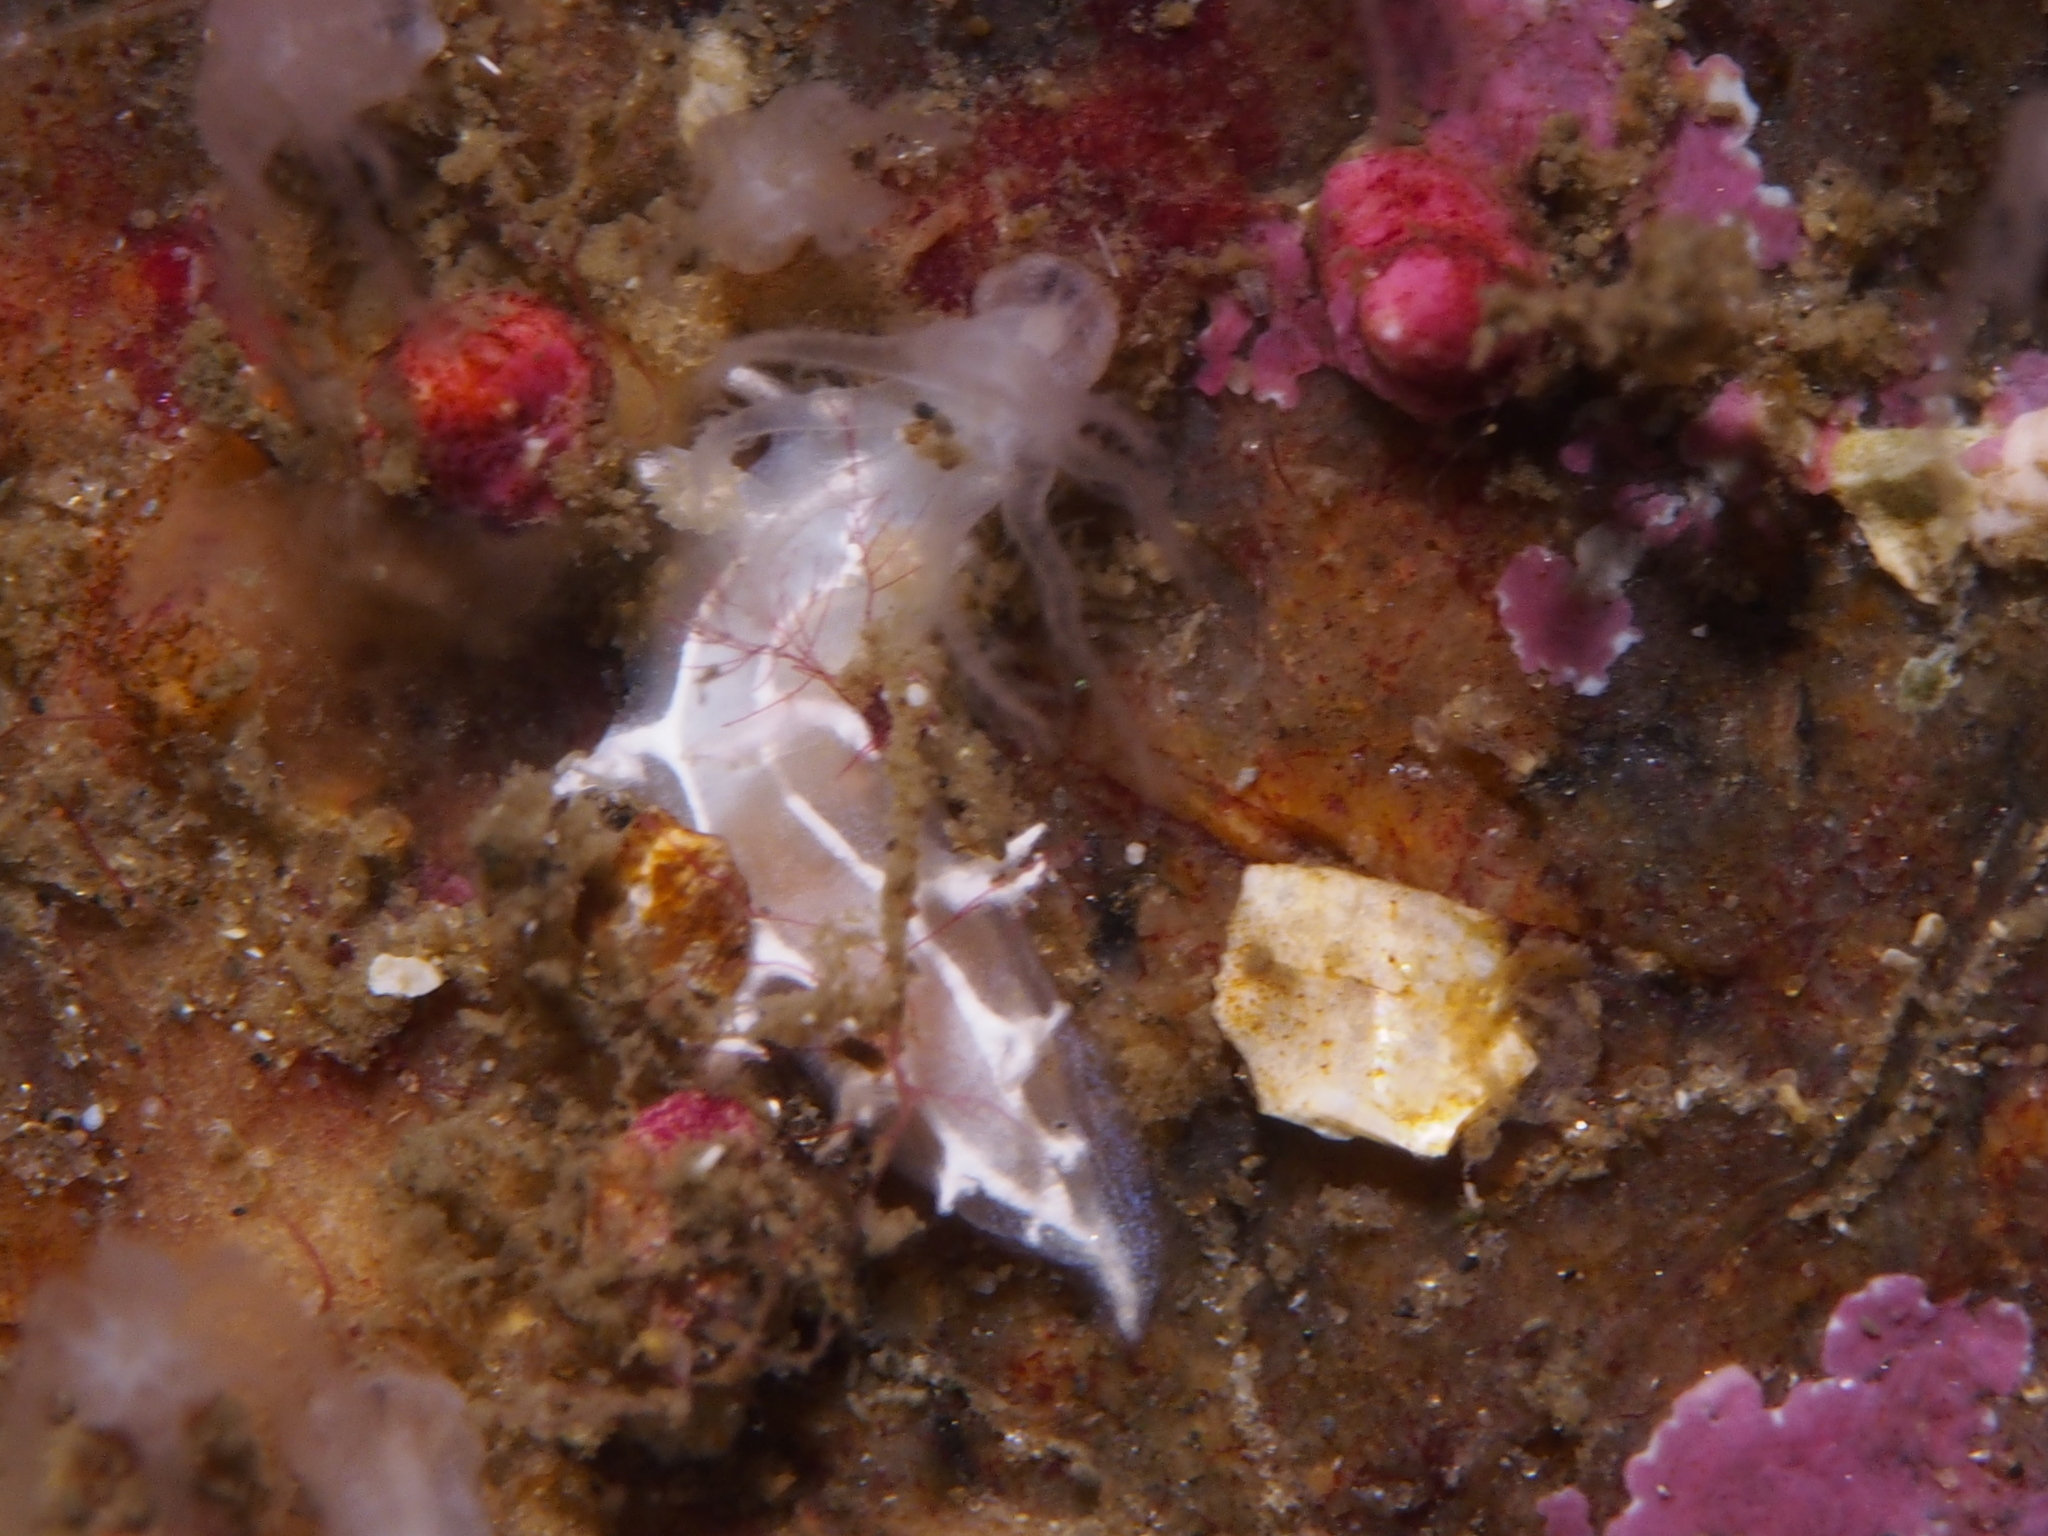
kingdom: Animalia
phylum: Mollusca
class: Gastropoda
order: Nudibranchia
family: Tritoniidae
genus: Duvaucelia
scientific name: Duvaucelia lineata
